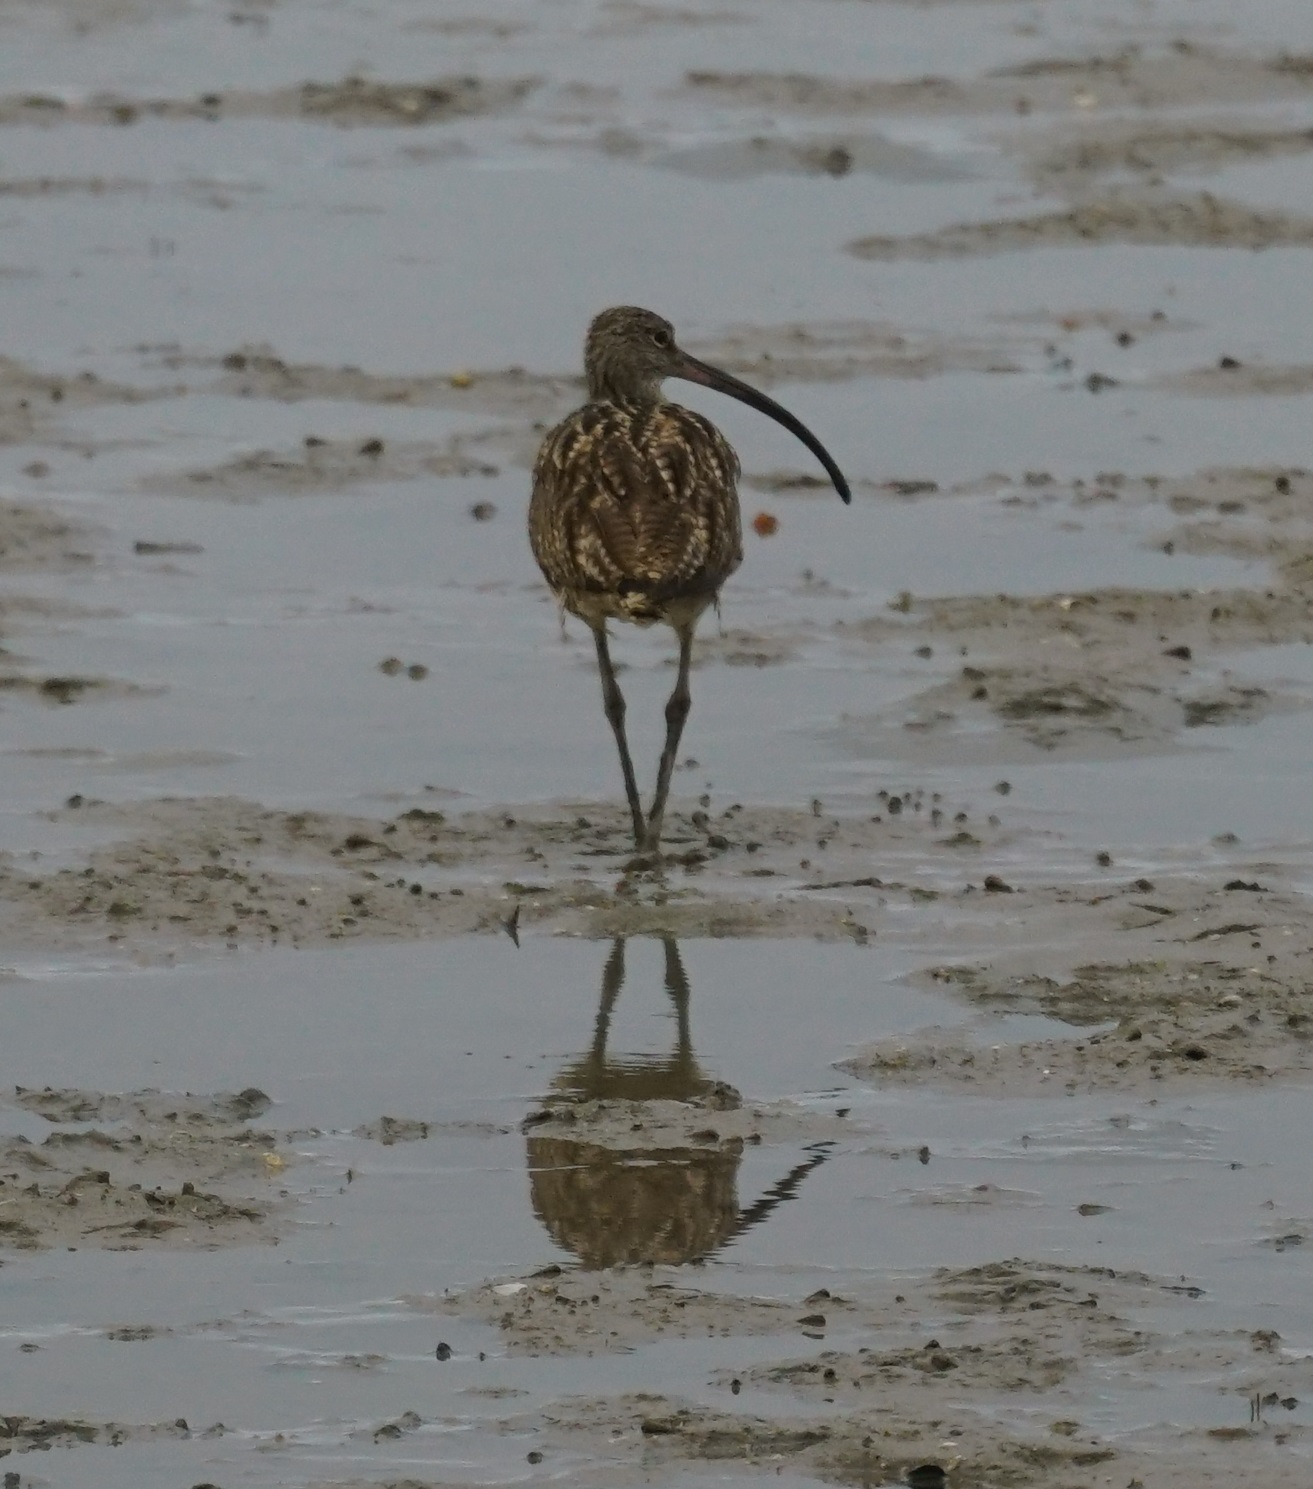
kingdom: Animalia
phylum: Chordata
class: Aves
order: Charadriiformes
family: Scolopacidae
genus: Numenius
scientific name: Numenius madagascariensis
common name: Far eastern curlew
